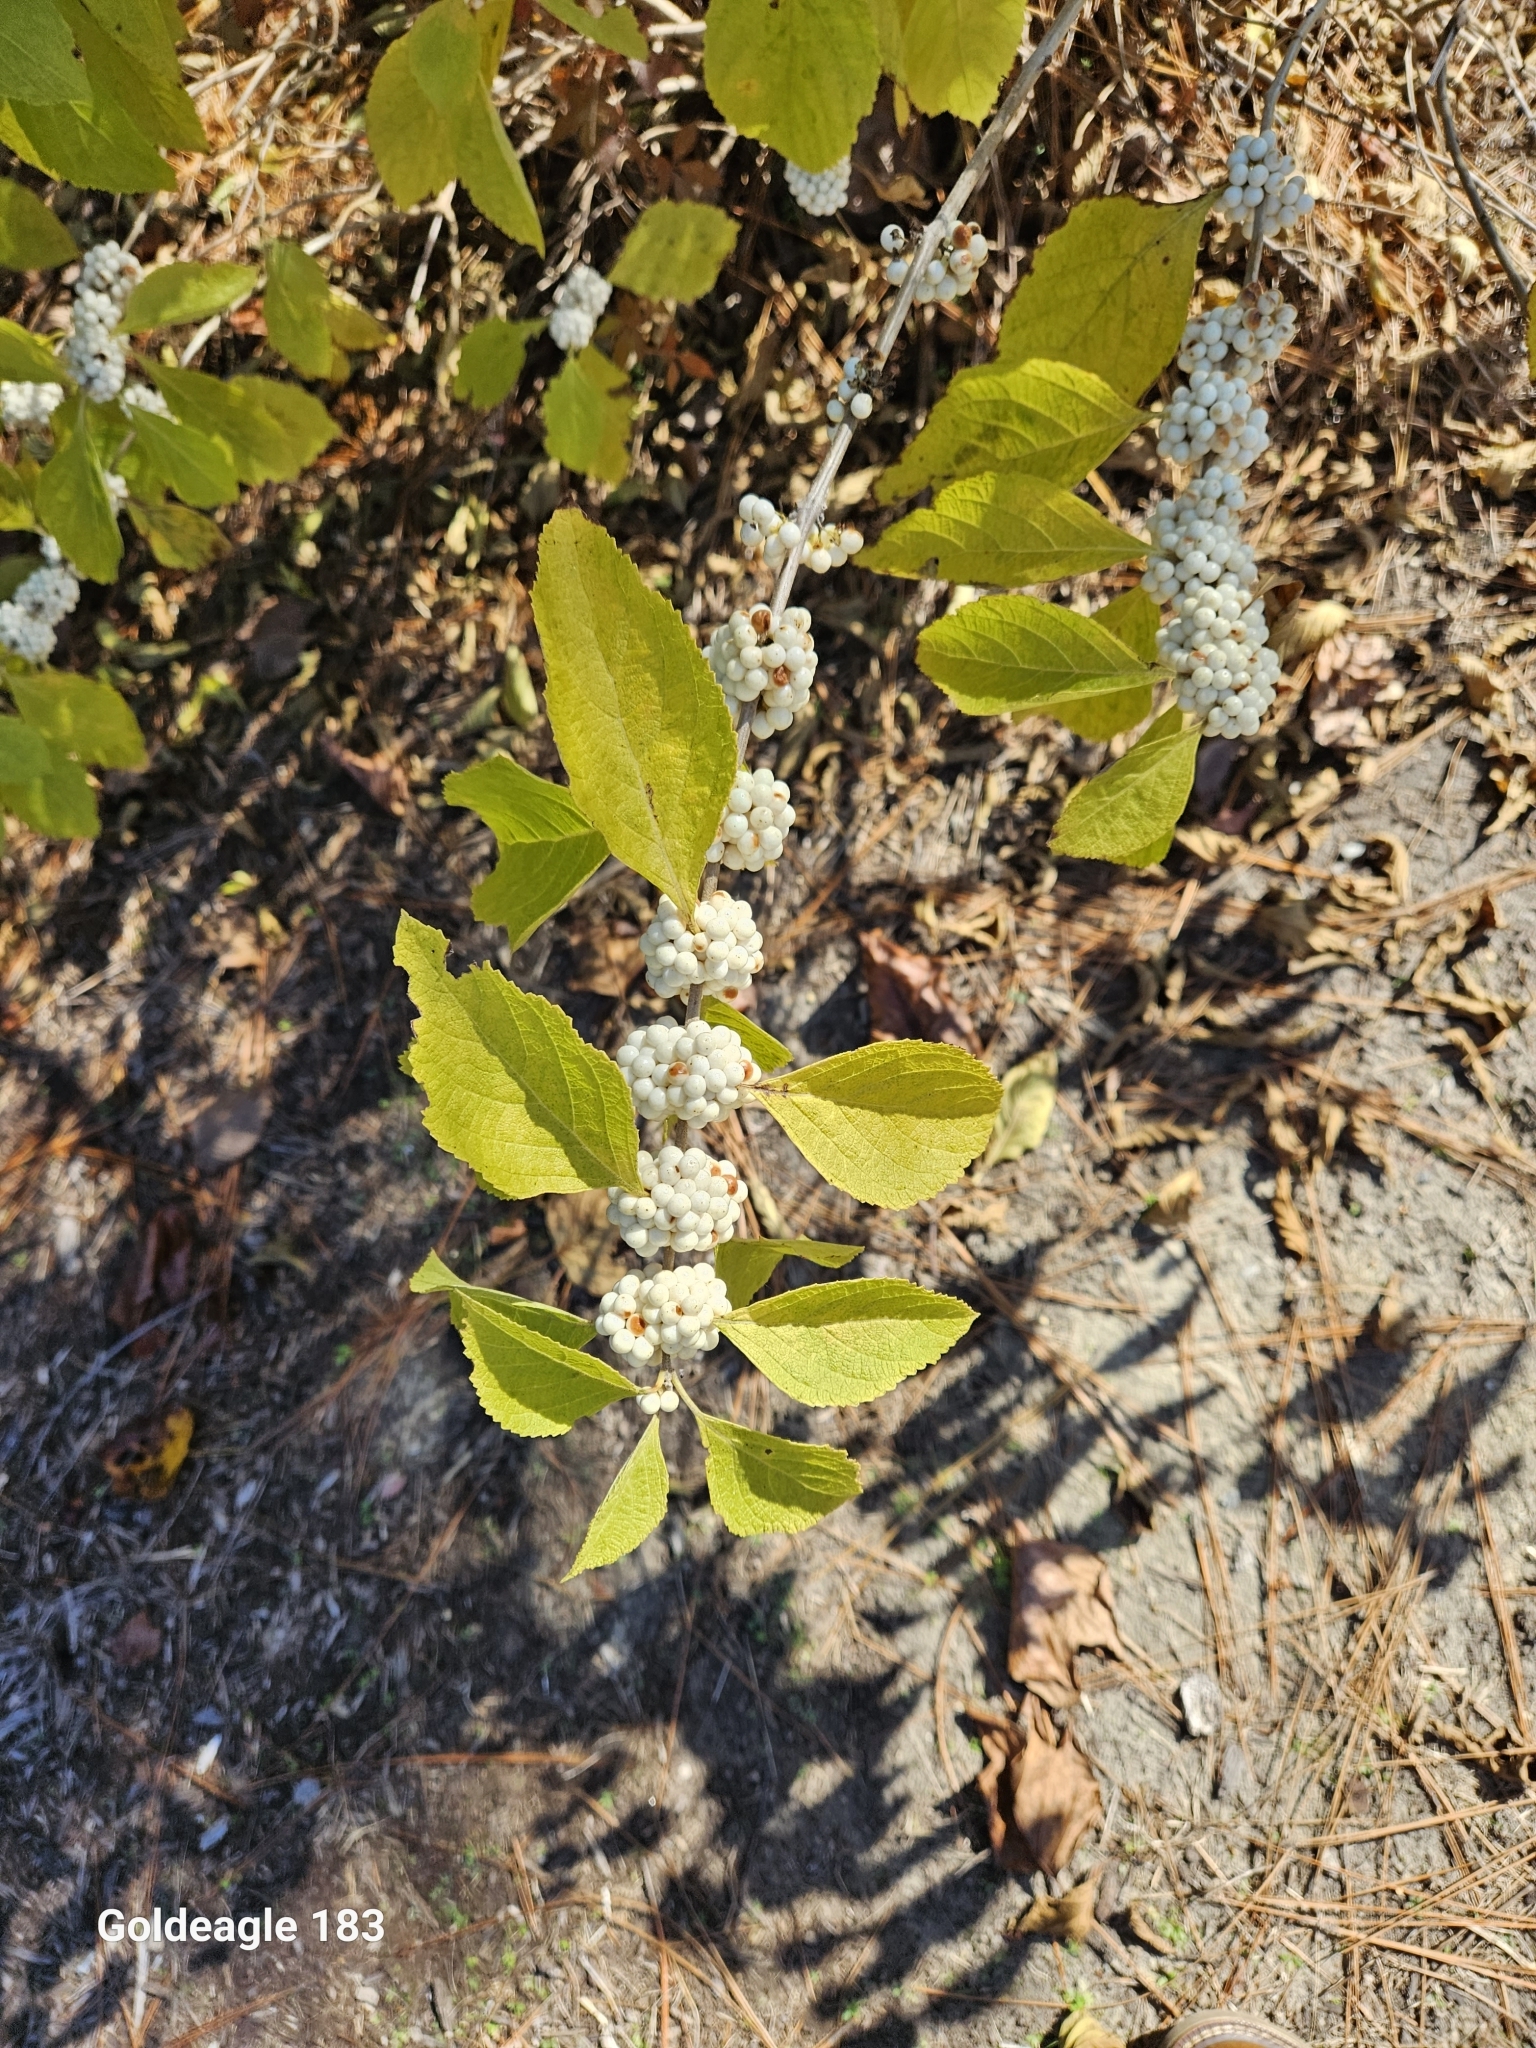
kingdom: Plantae
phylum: Tracheophyta
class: Magnoliopsida
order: Lamiales
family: Lamiaceae
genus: Callicarpa
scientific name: Callicarpa americana
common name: American beautyberry
